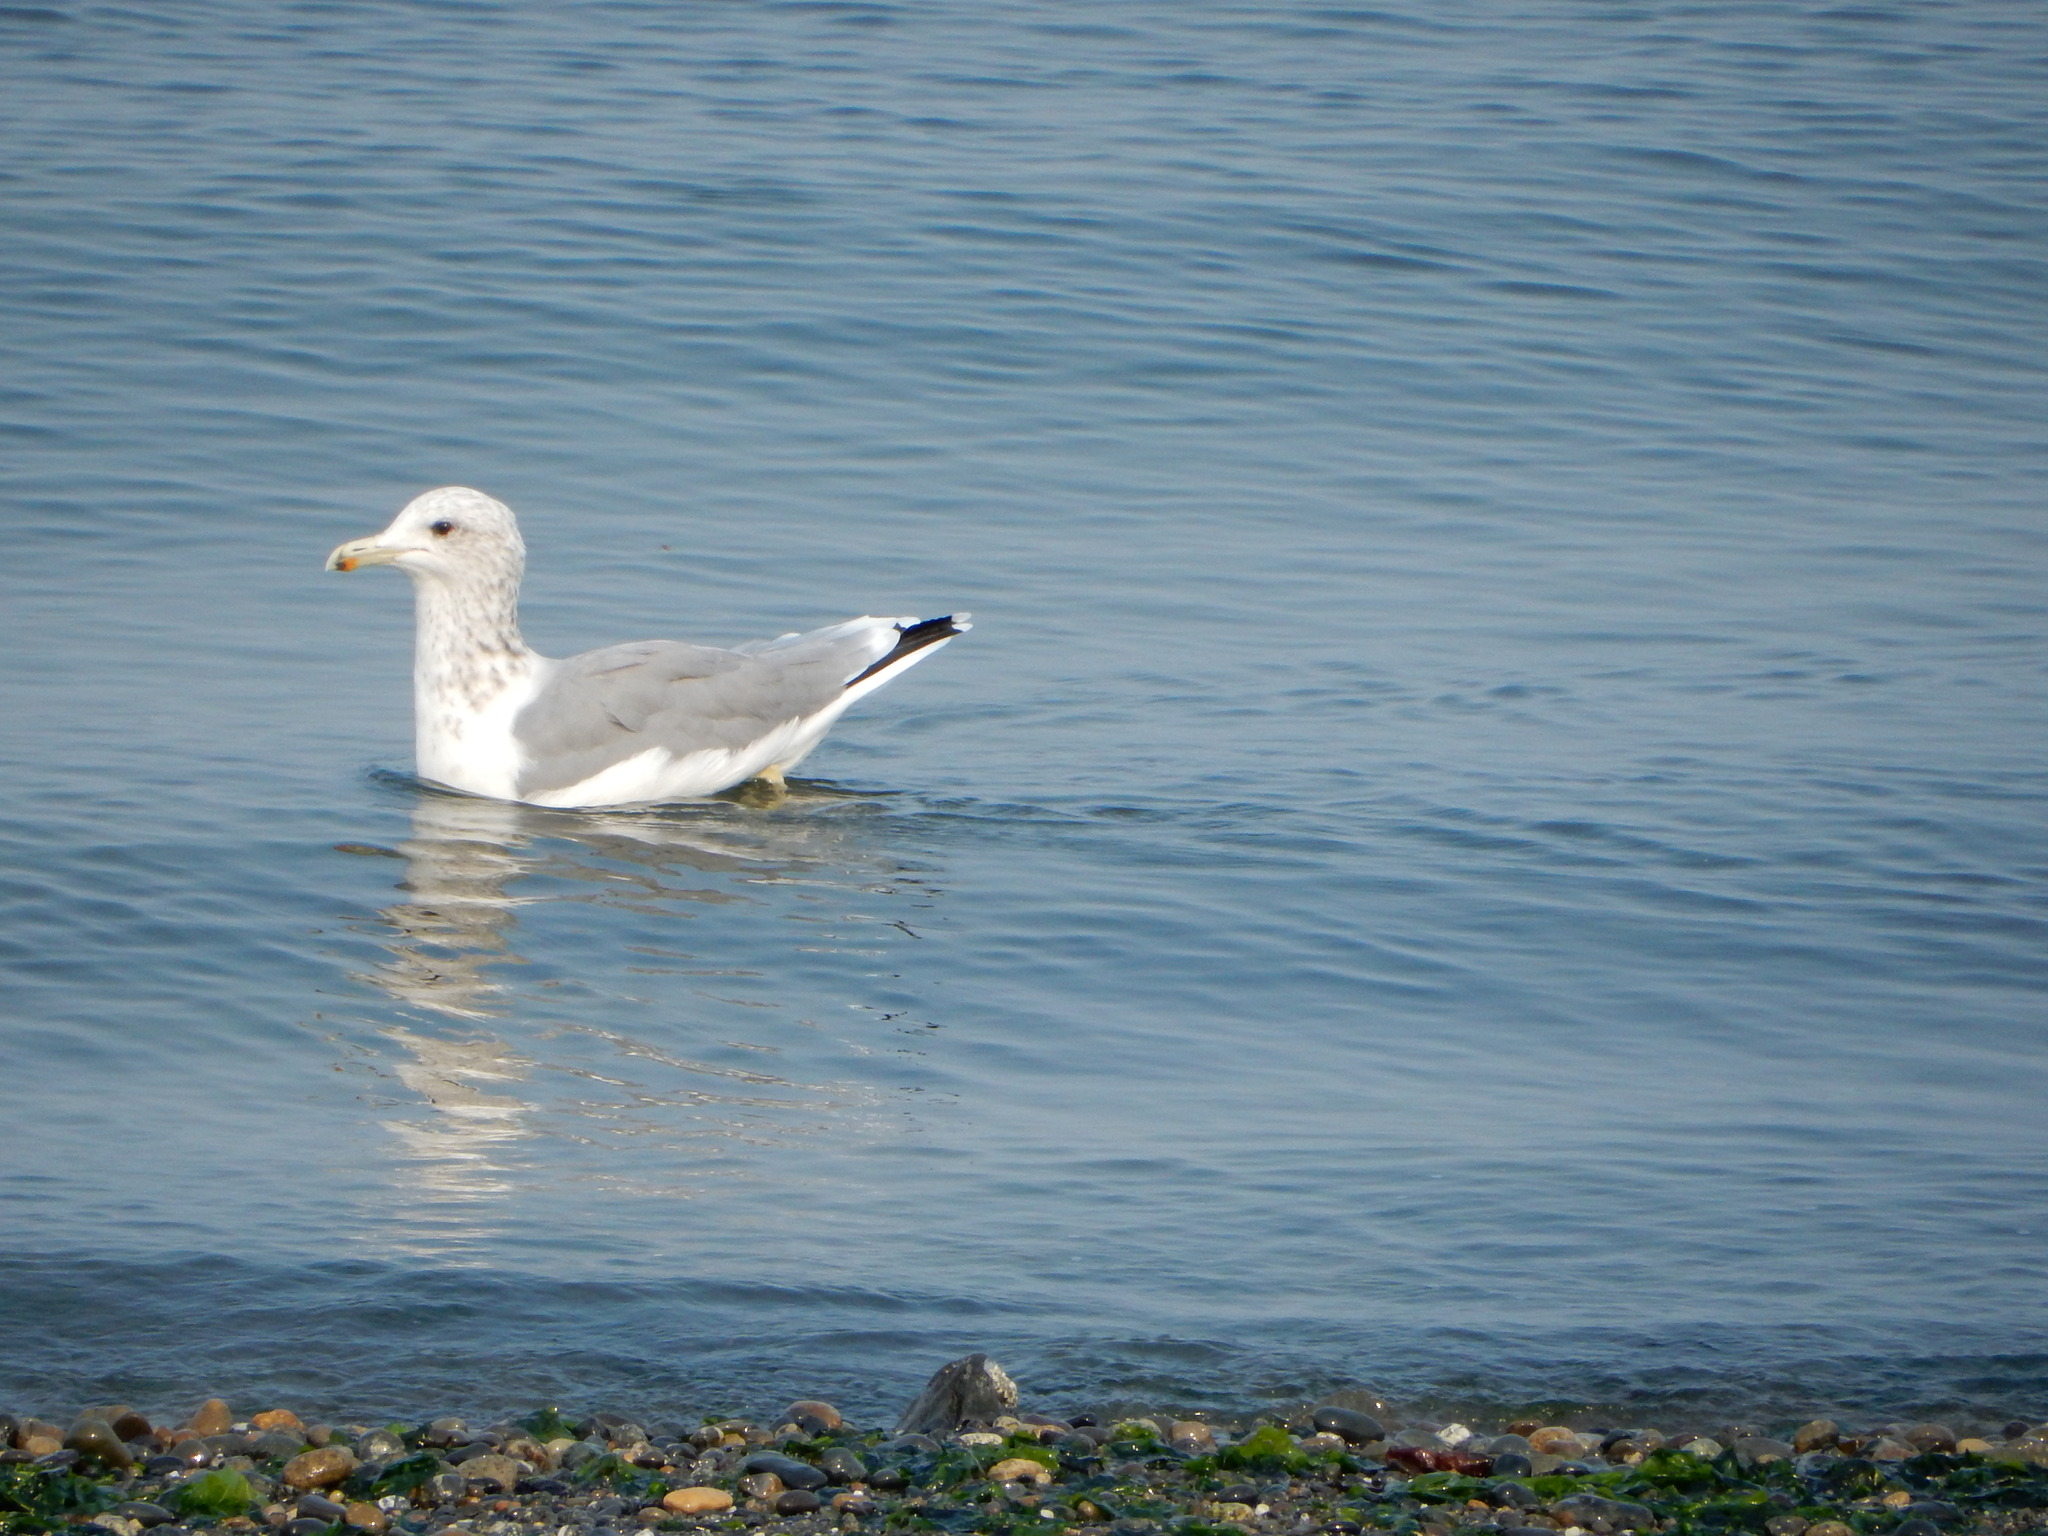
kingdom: Animalia
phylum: Chordata
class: Aves
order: Charadriiformes
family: Laridae
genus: Larus
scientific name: Larus californicus
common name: California gull
